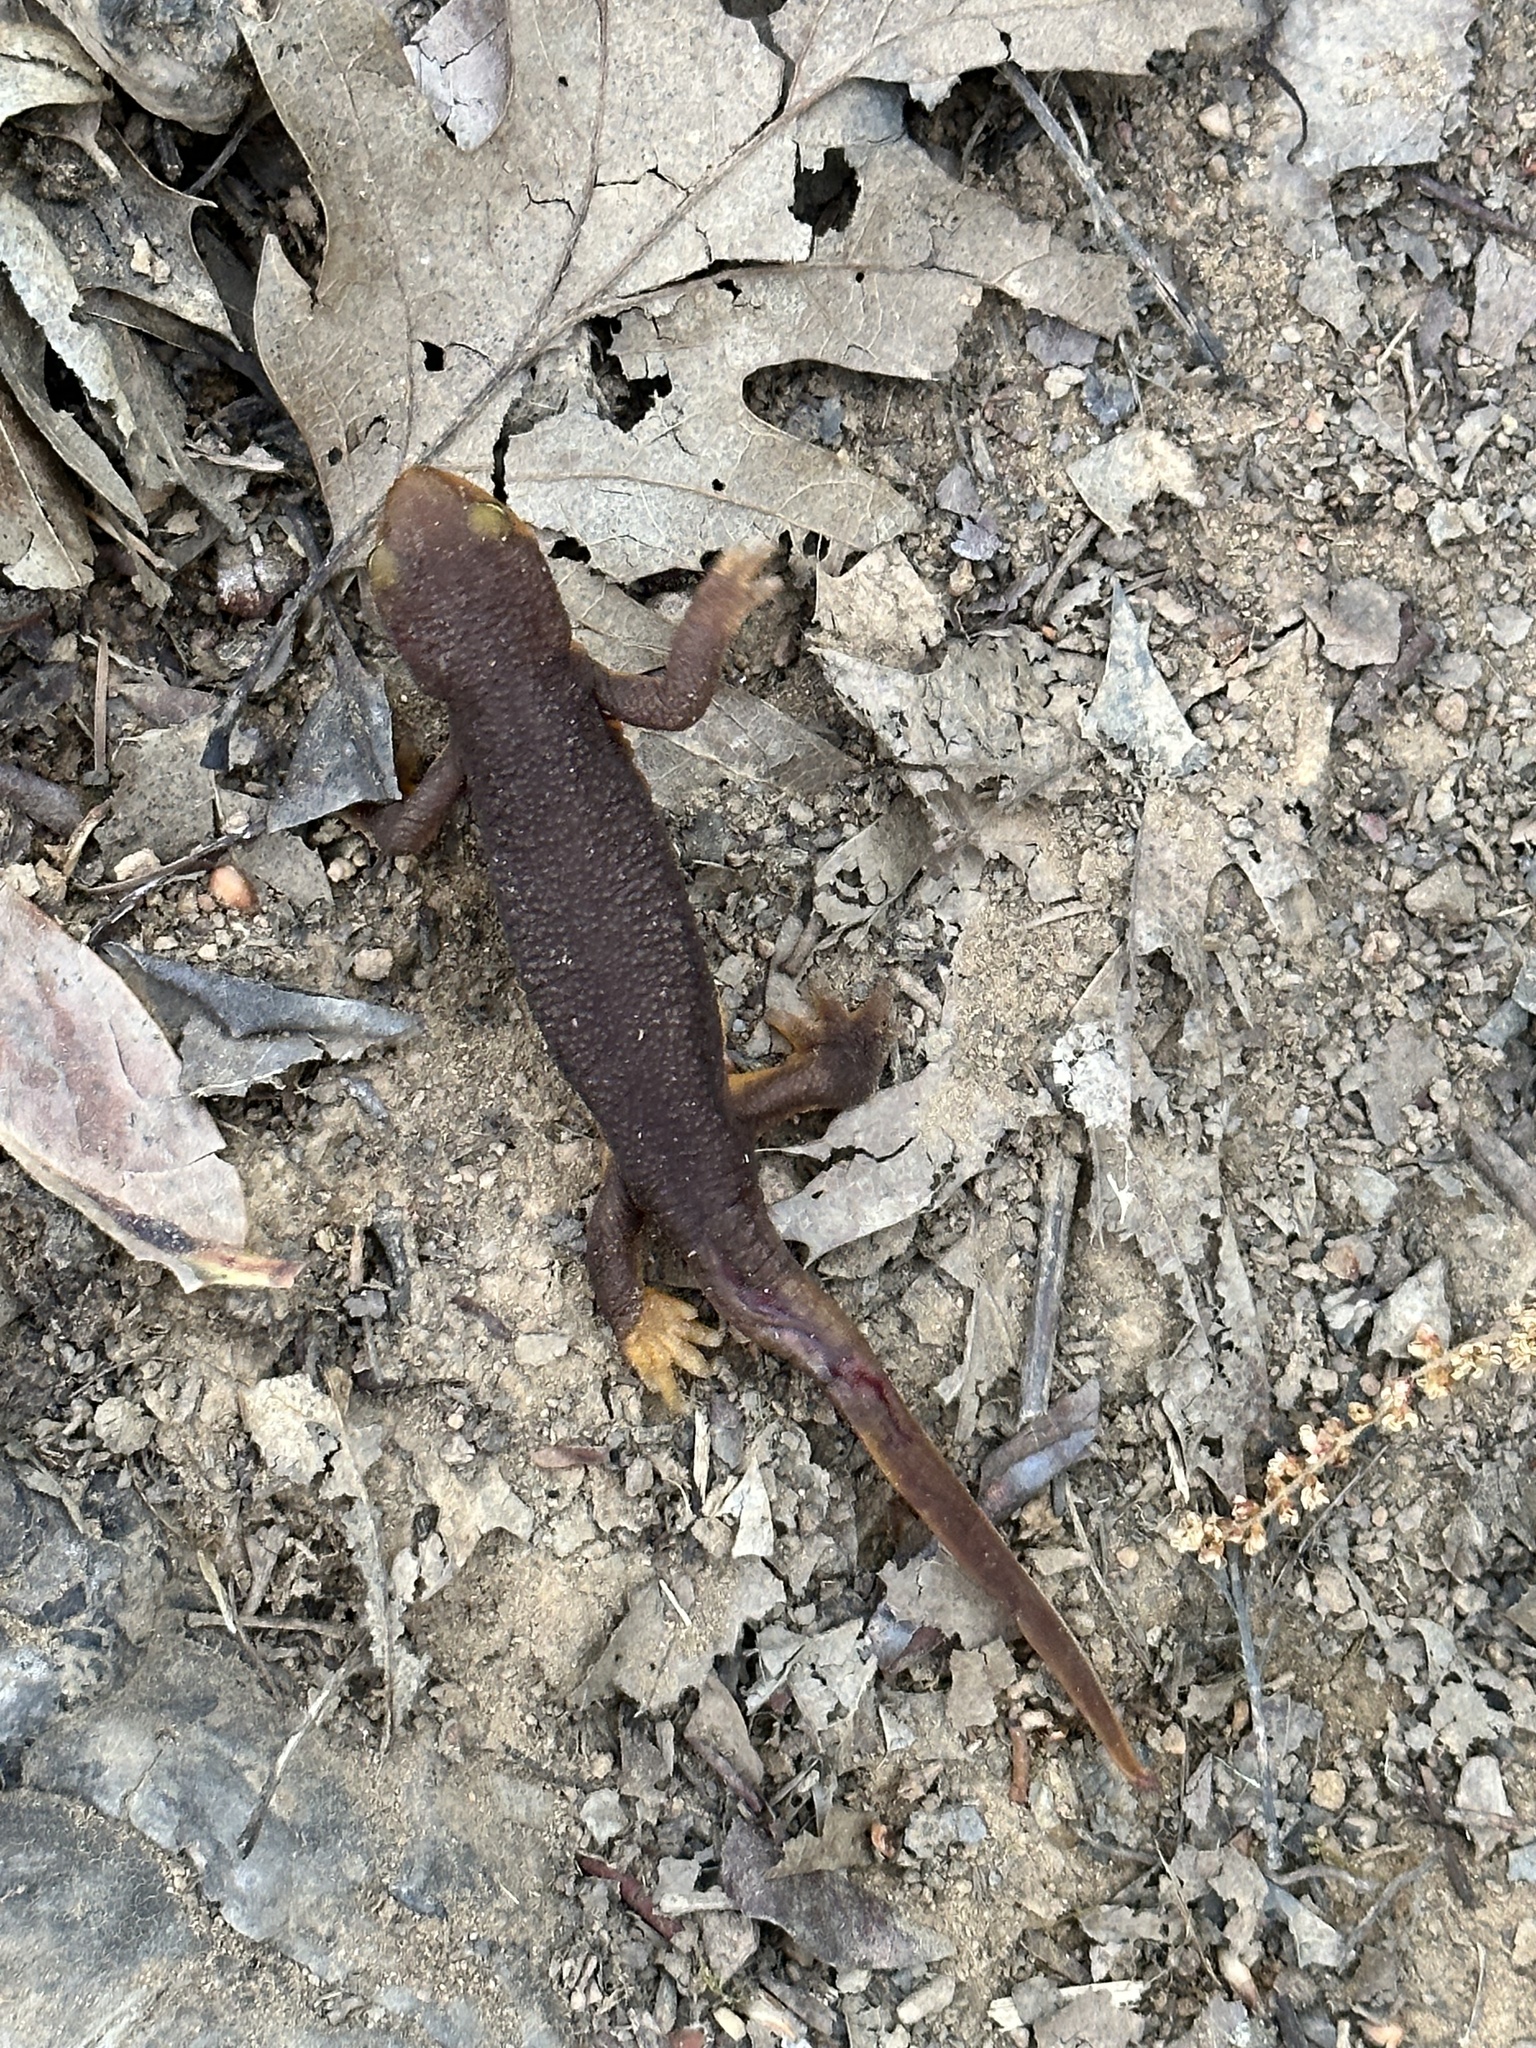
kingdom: Animalia
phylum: Chordata
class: Amphibia
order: Caudata
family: Salamandridae
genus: Taricha
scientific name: Taricha torosa
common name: California newt
